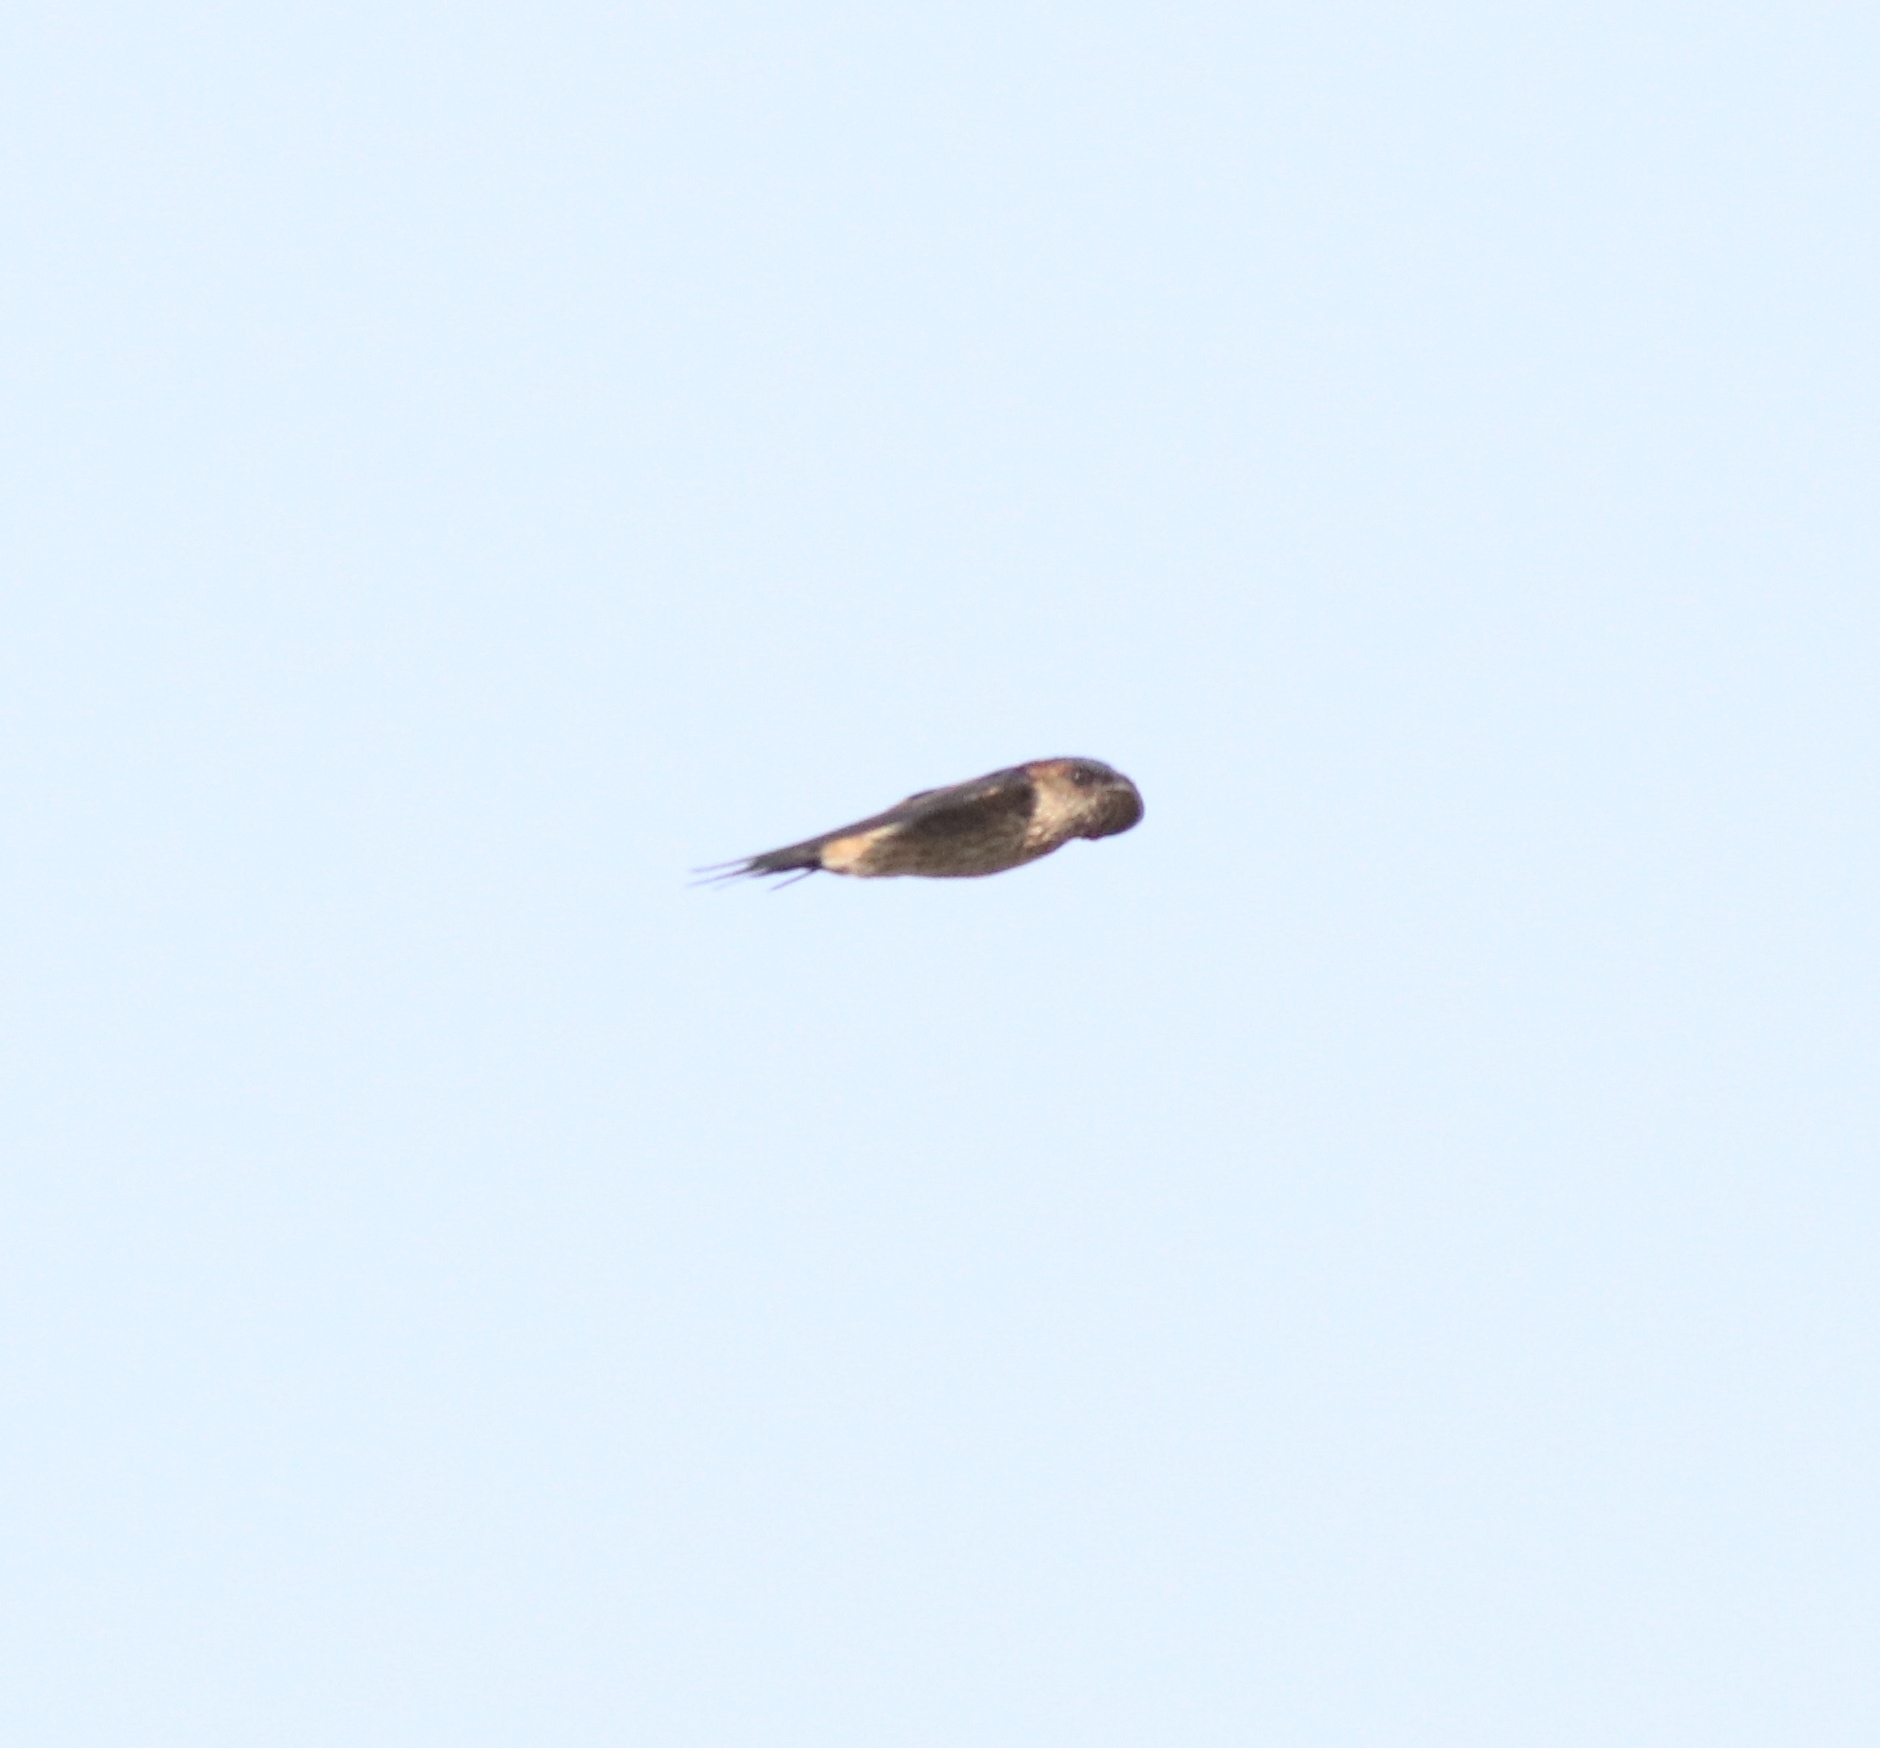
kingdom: Animalia
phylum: Chordata
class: Aves
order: Passeriformes
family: Hirundinidae
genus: Cecropis
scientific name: Cecropis daurica
